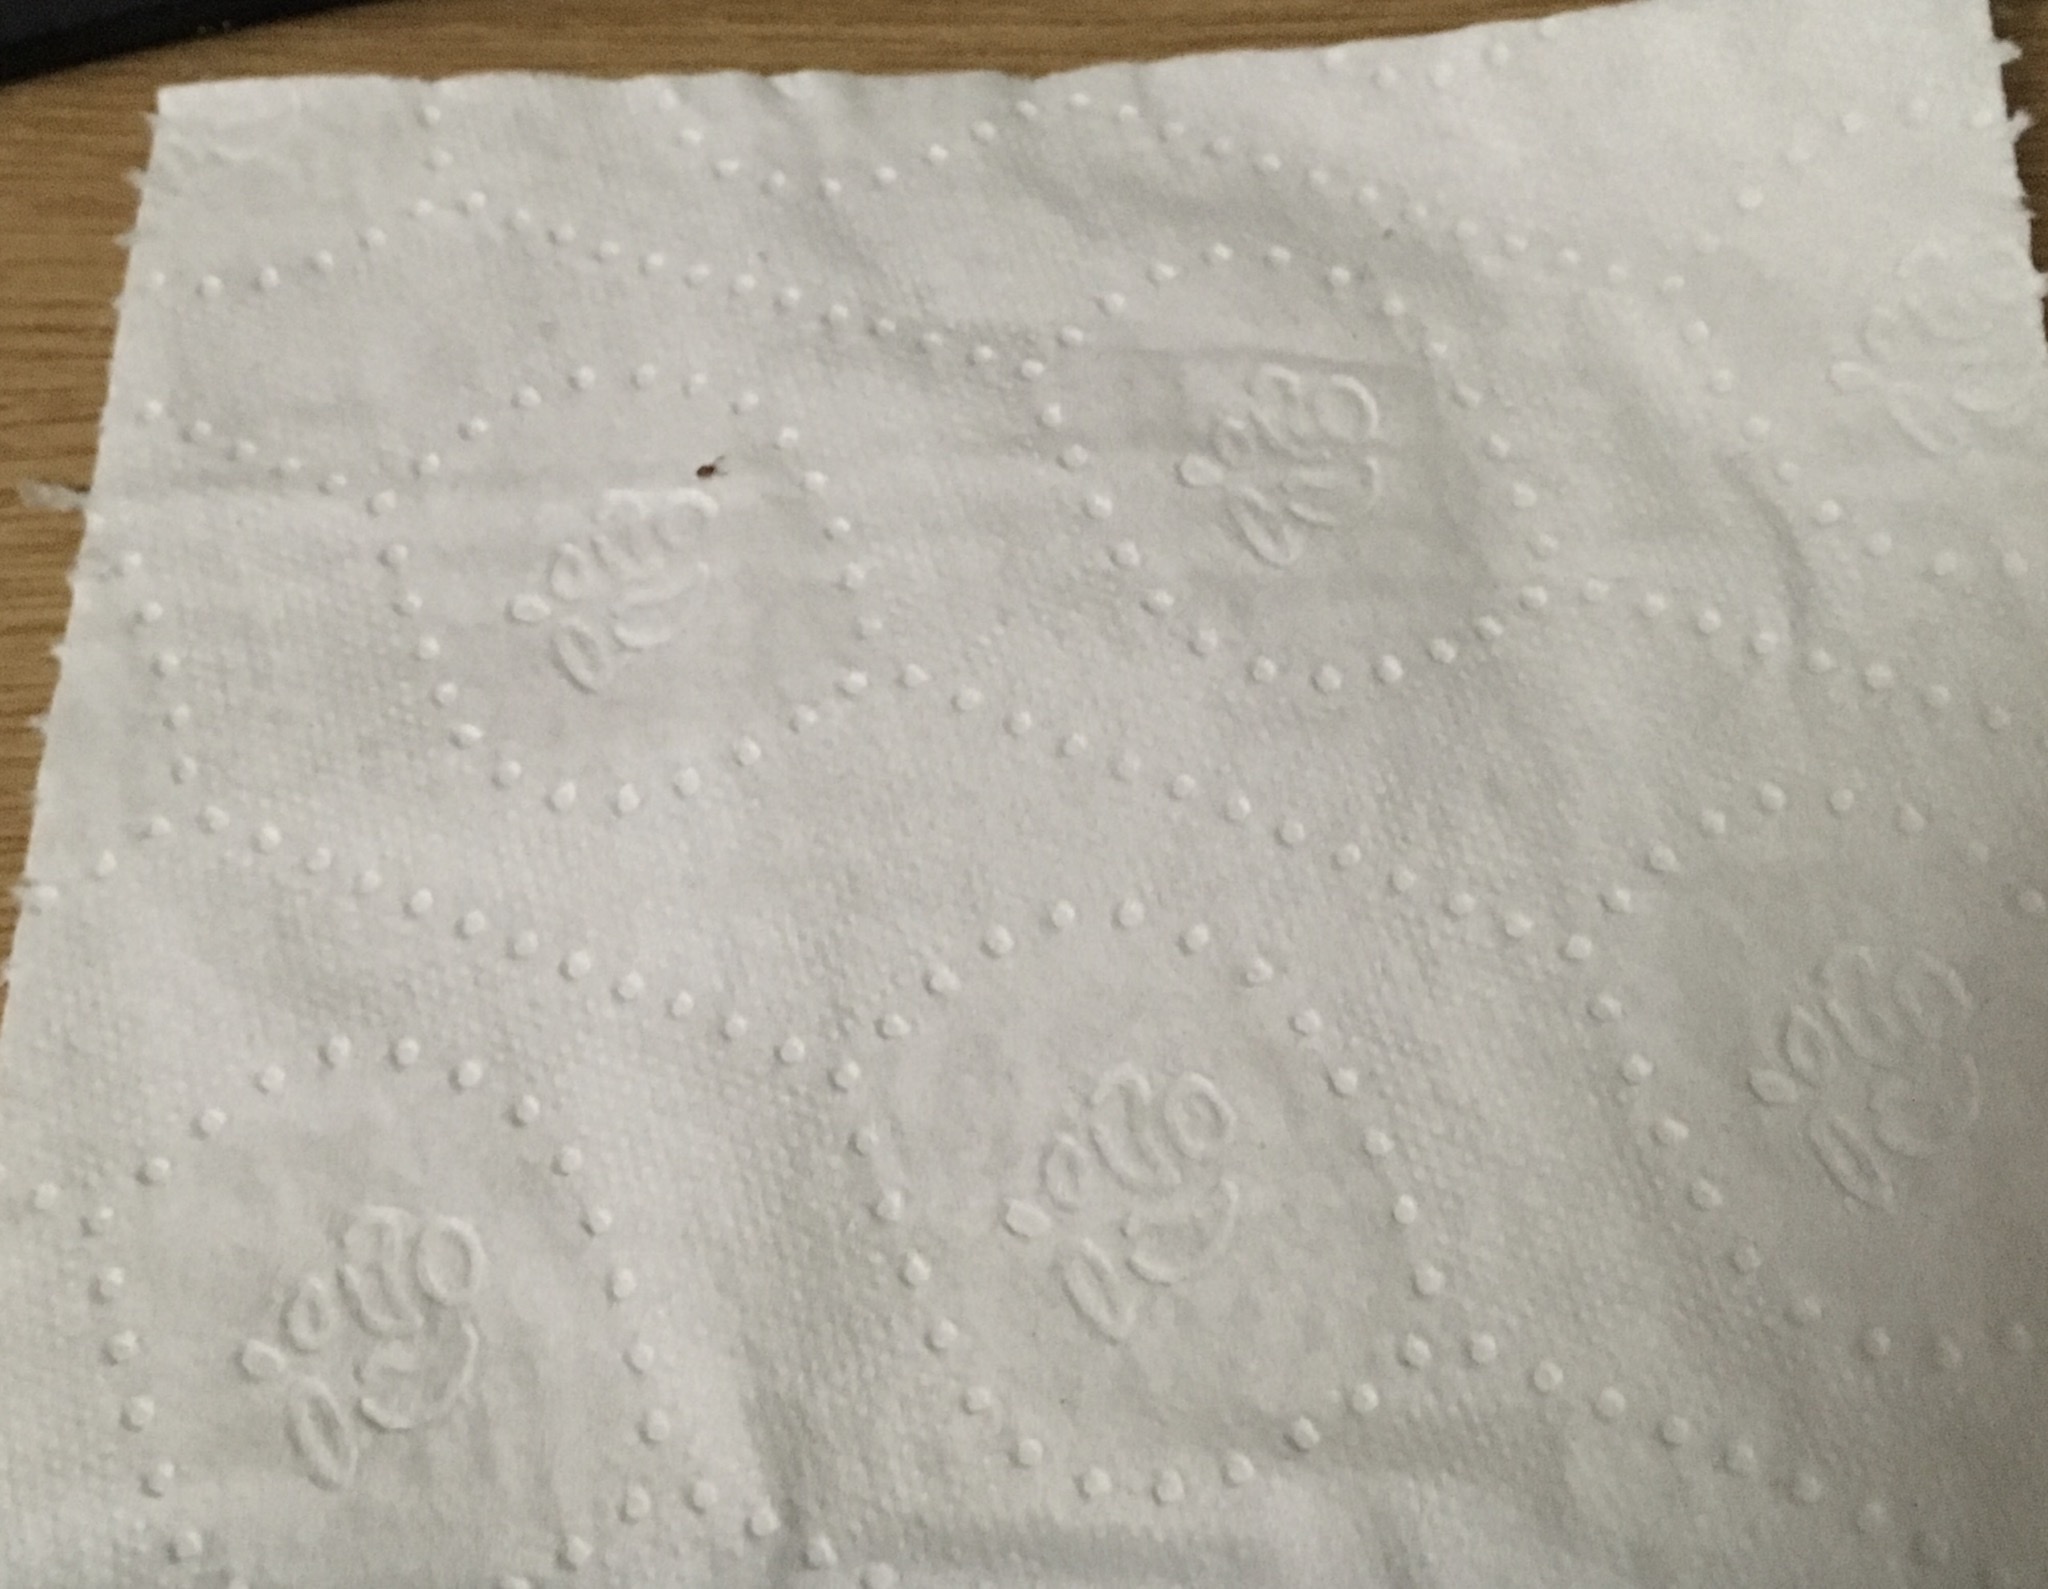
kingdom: Animalia
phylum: Arthropoda
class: Arachnida
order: Pseudoscorpiones
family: Cheiridiidae
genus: Cheiridium
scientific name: Cheiridium museorum
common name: Book scorpion
